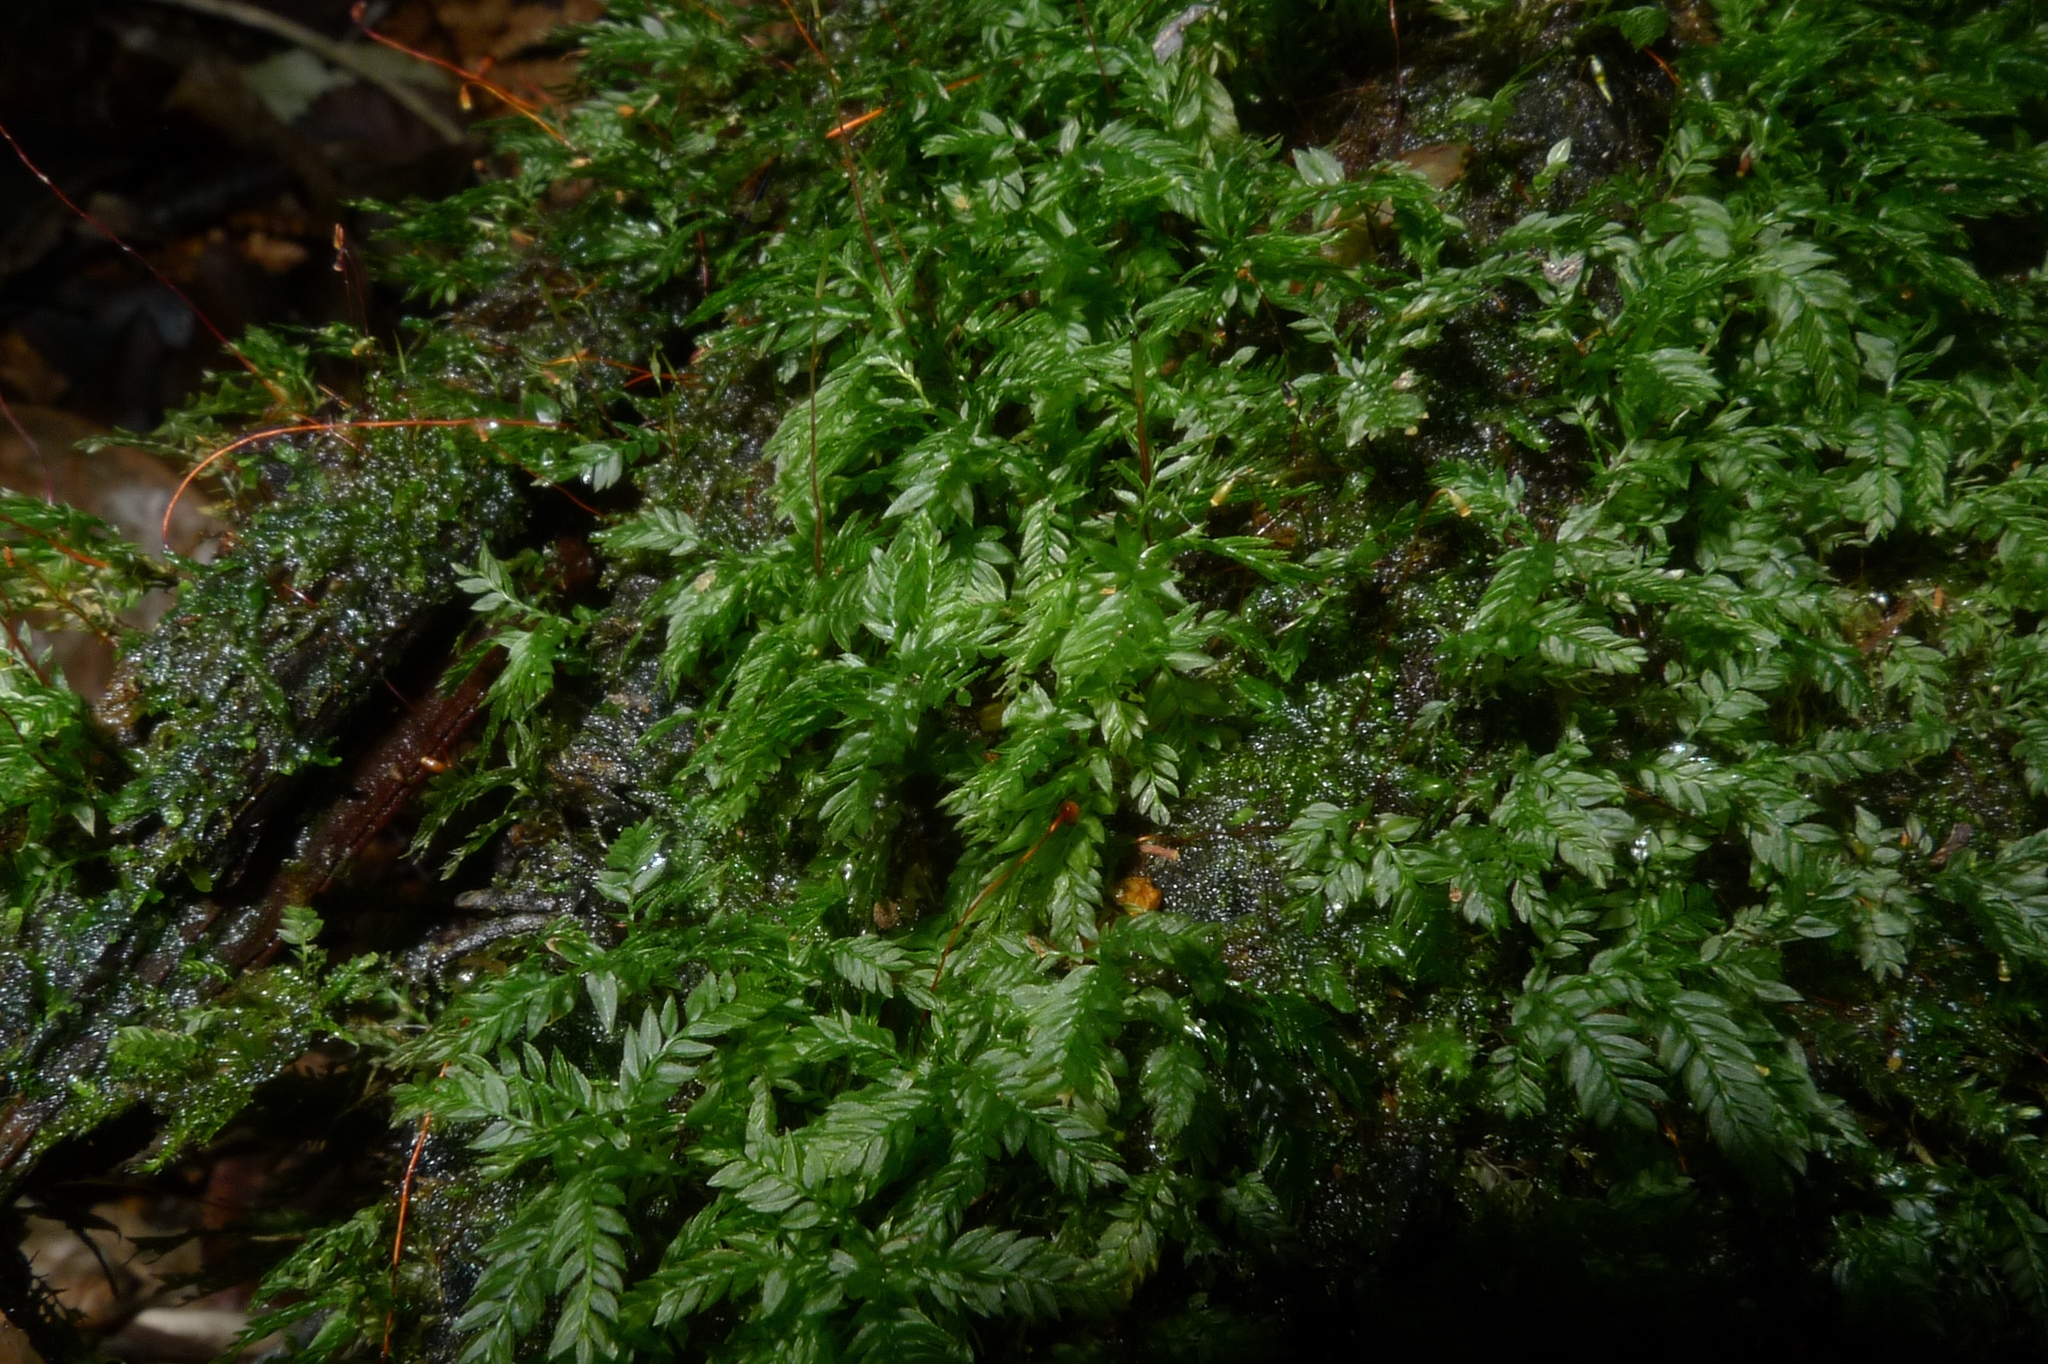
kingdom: Plantae
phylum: Bryophyta
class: Bryopsida
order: Aulacomniales
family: Aulacomniaceae
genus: Hymenodontopsis
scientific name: Hymenodontopsis bifaria
